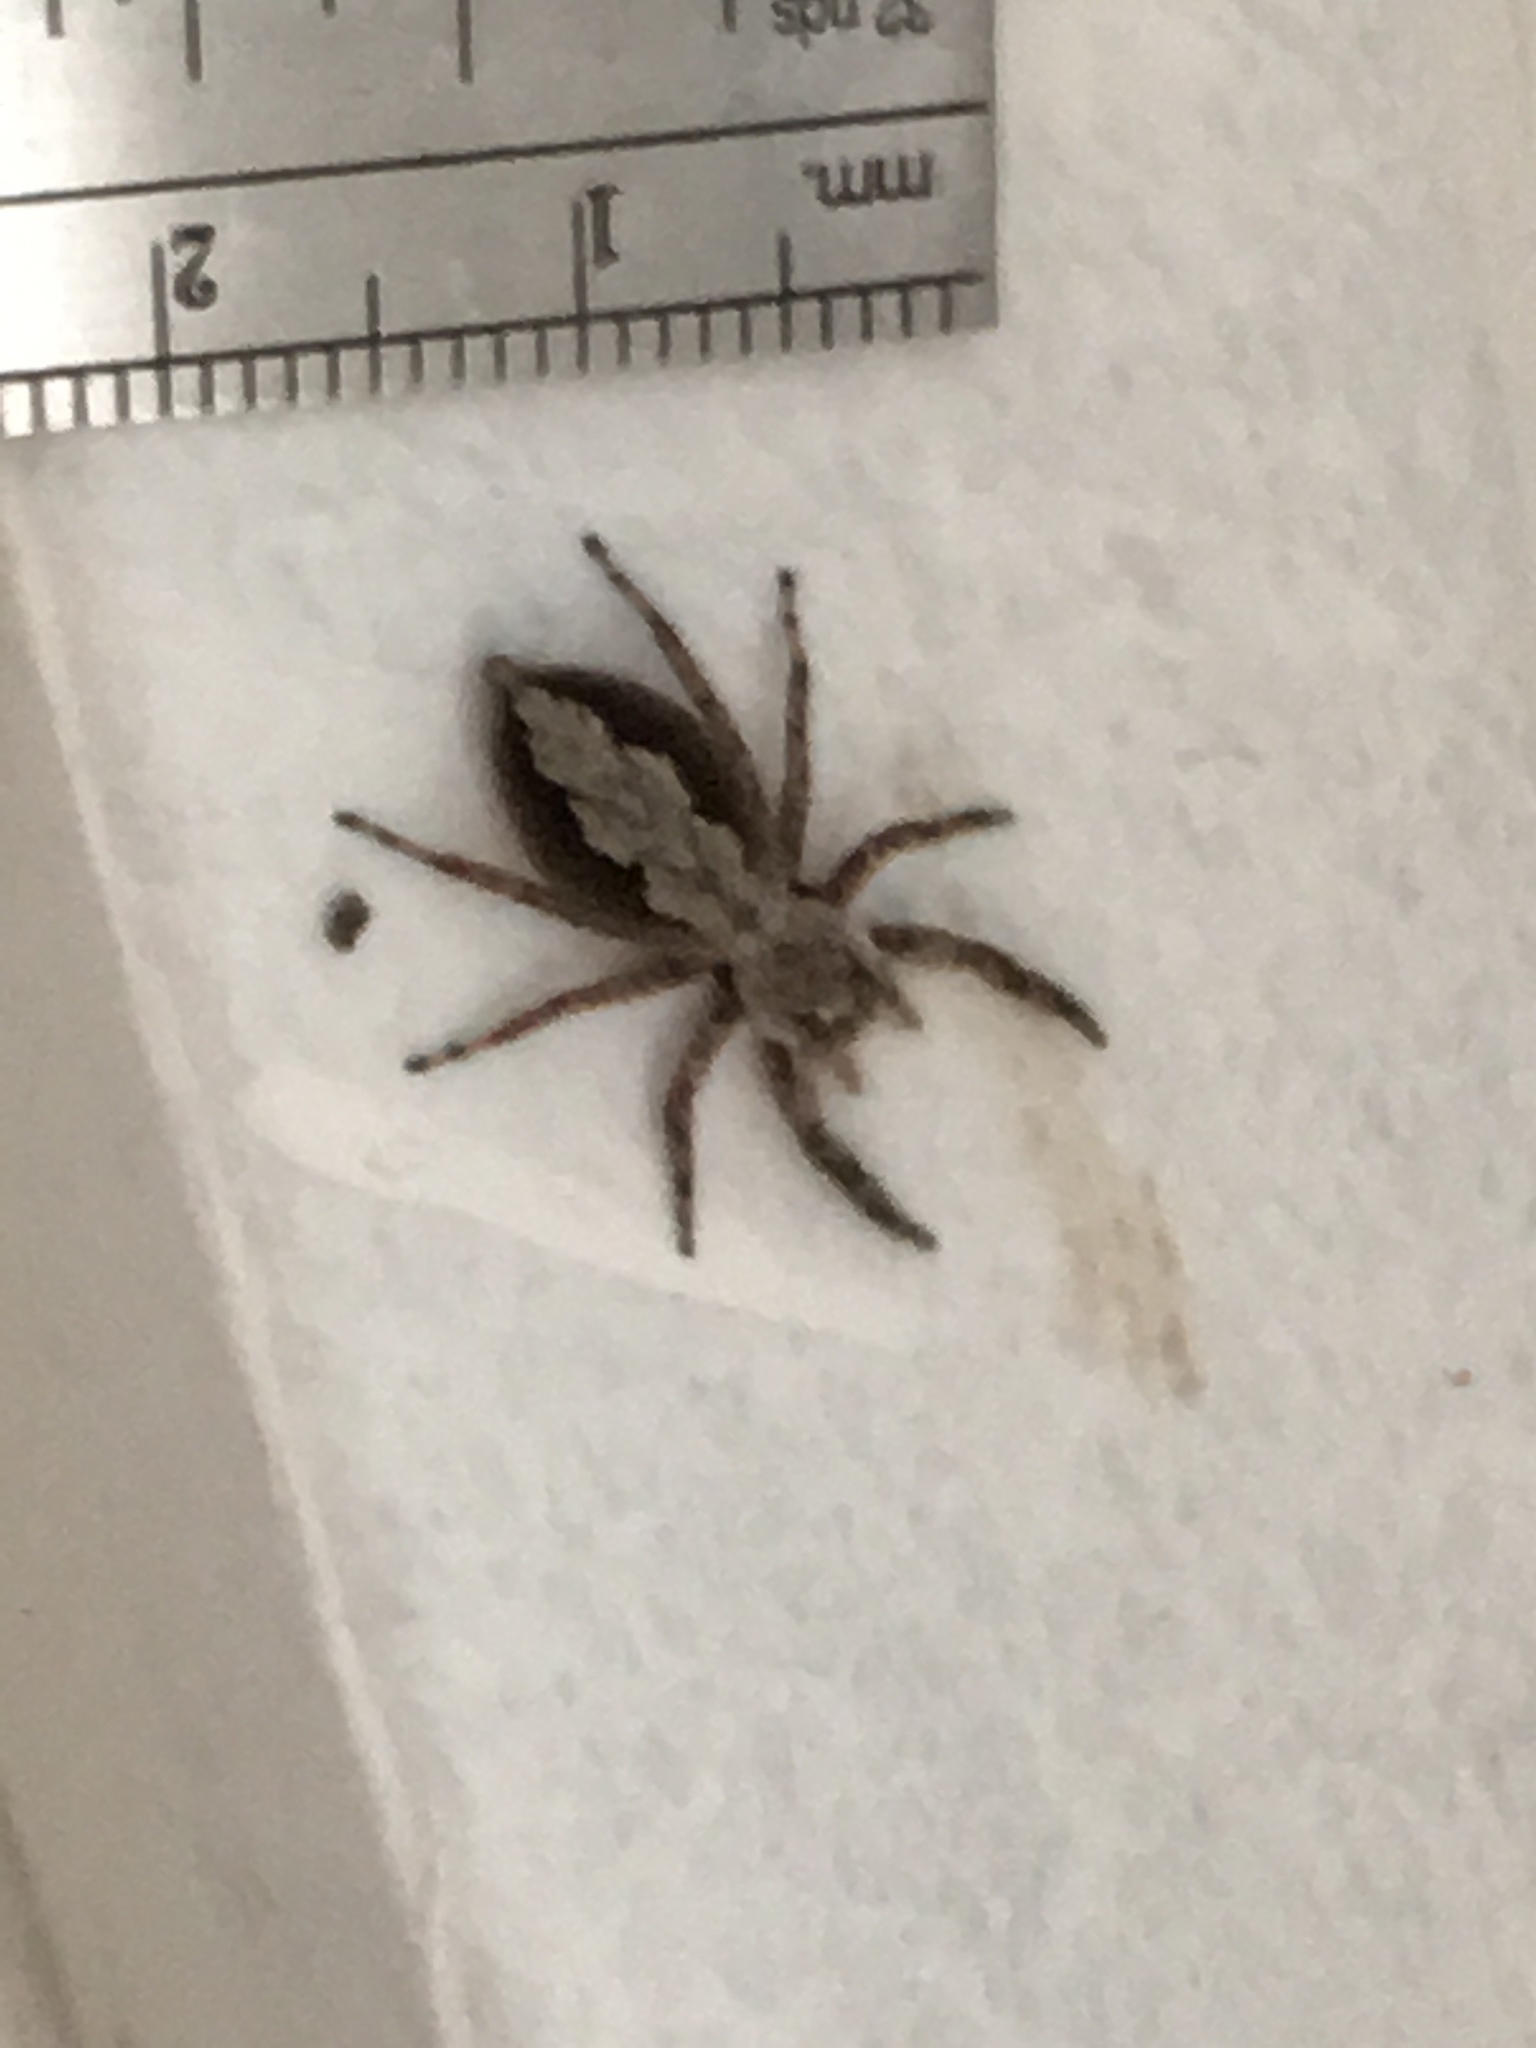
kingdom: Animalia
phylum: Arthropoda
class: Arachnida
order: Araneae
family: Salticidae
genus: Platycryptus
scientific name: Platycryptus undatus
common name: Tan jumping spider
